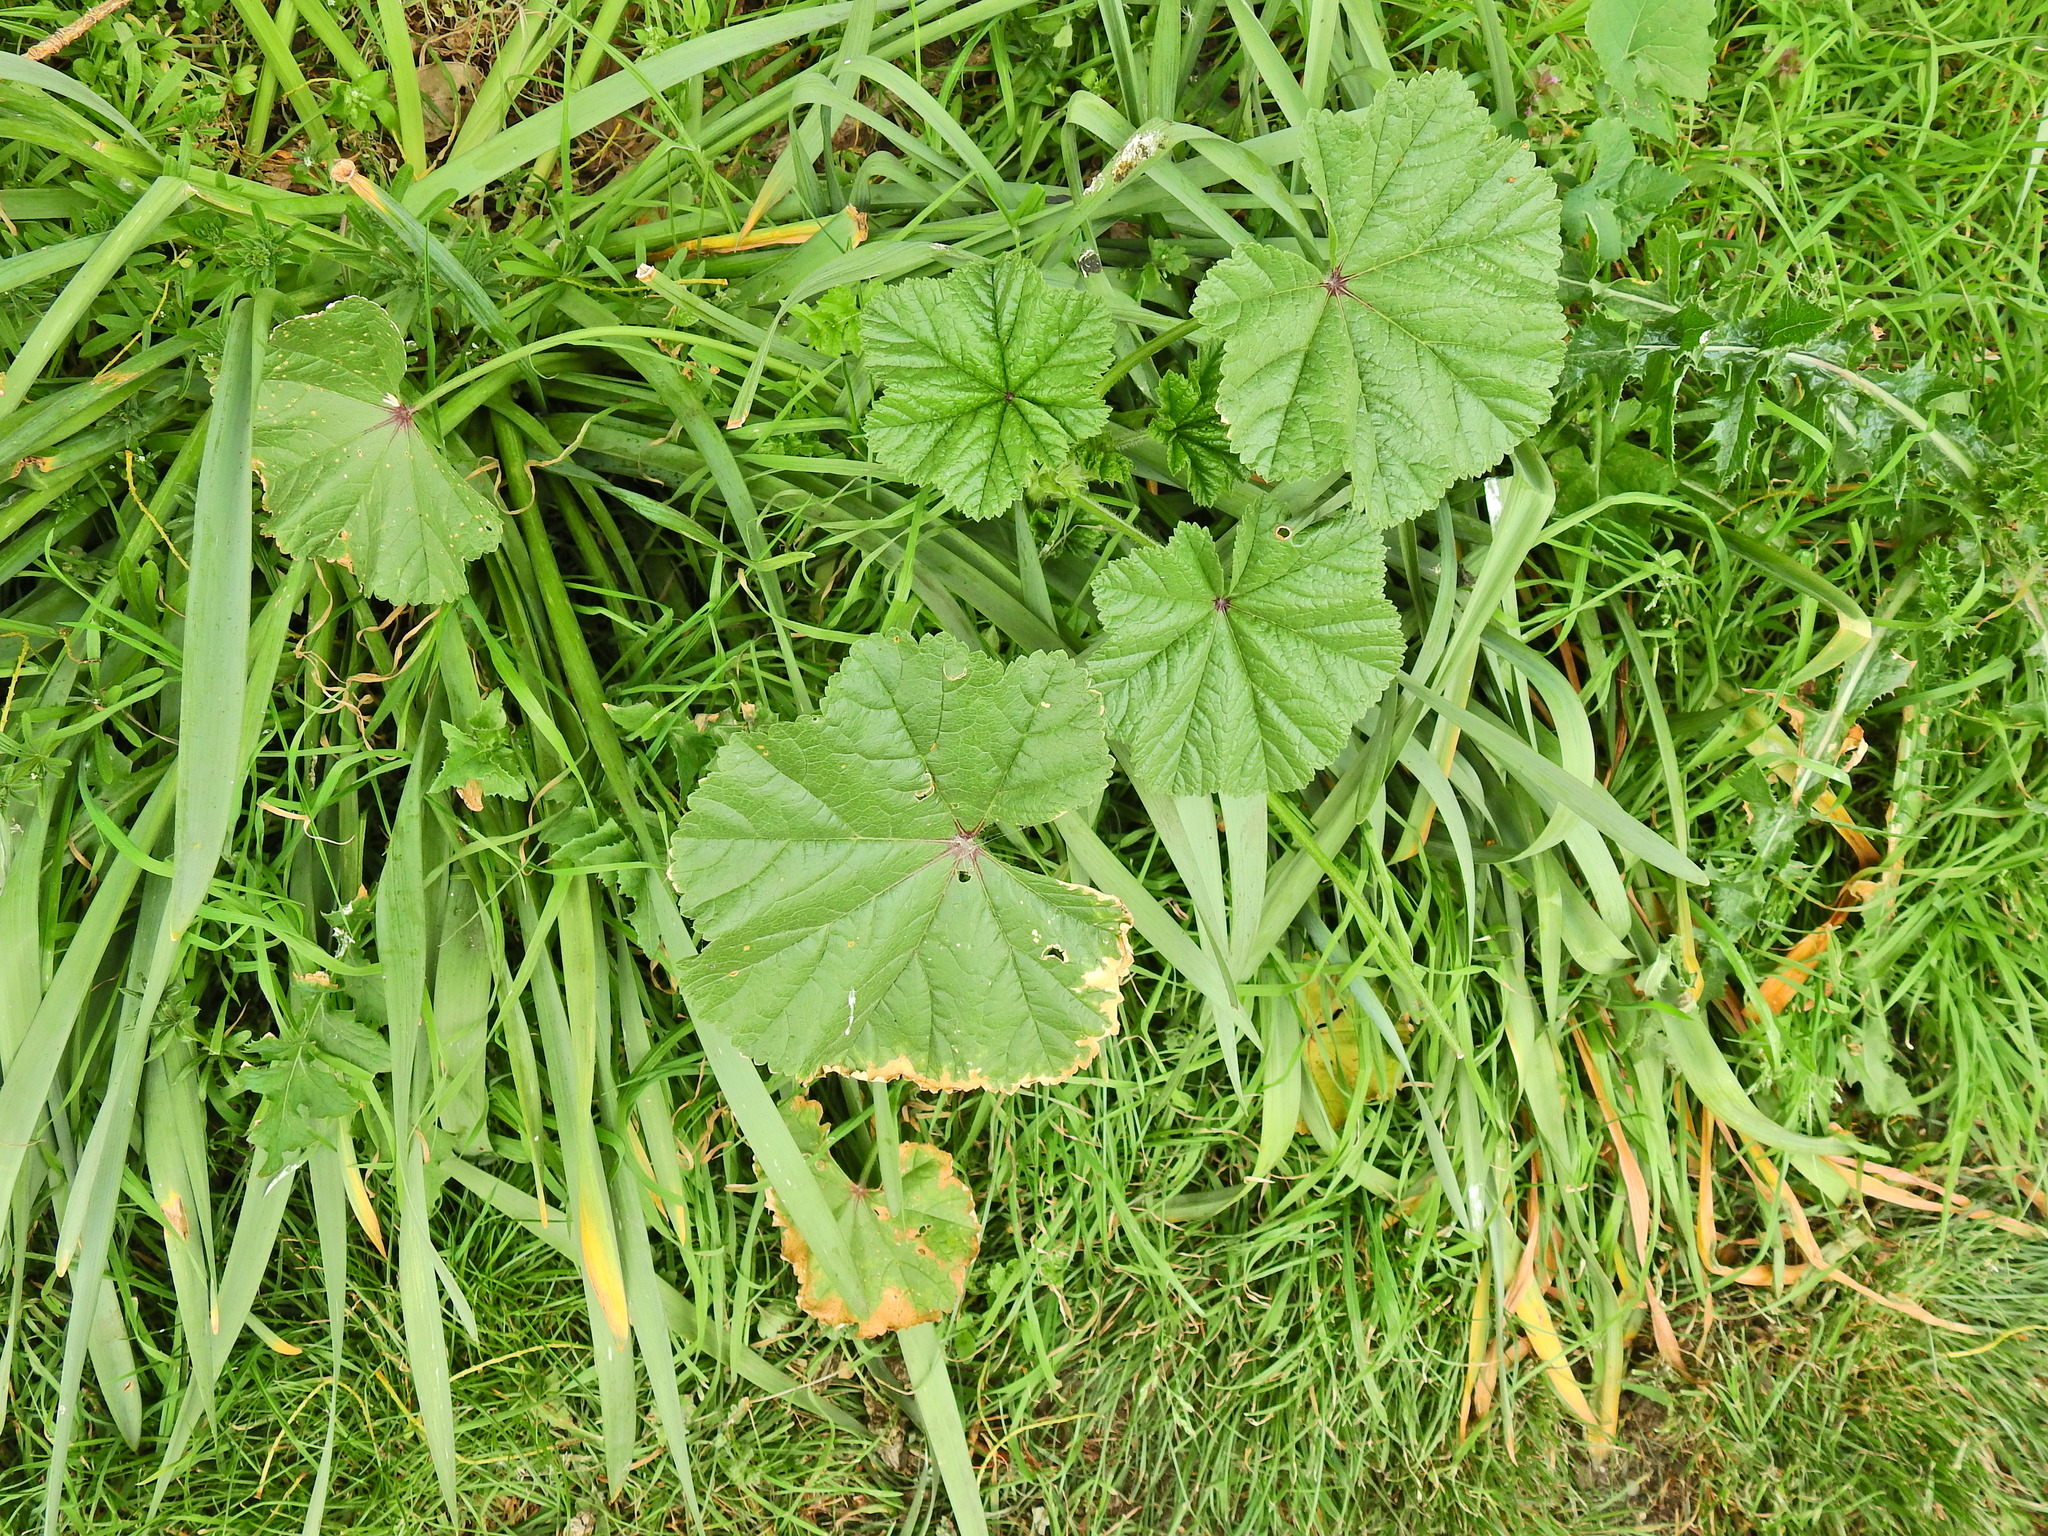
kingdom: Plantae
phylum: Tracheophyta
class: Magnoliopsida
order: Malvales
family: Malvaceae
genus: Malva
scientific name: Malva sylvestris
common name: Common mallow
